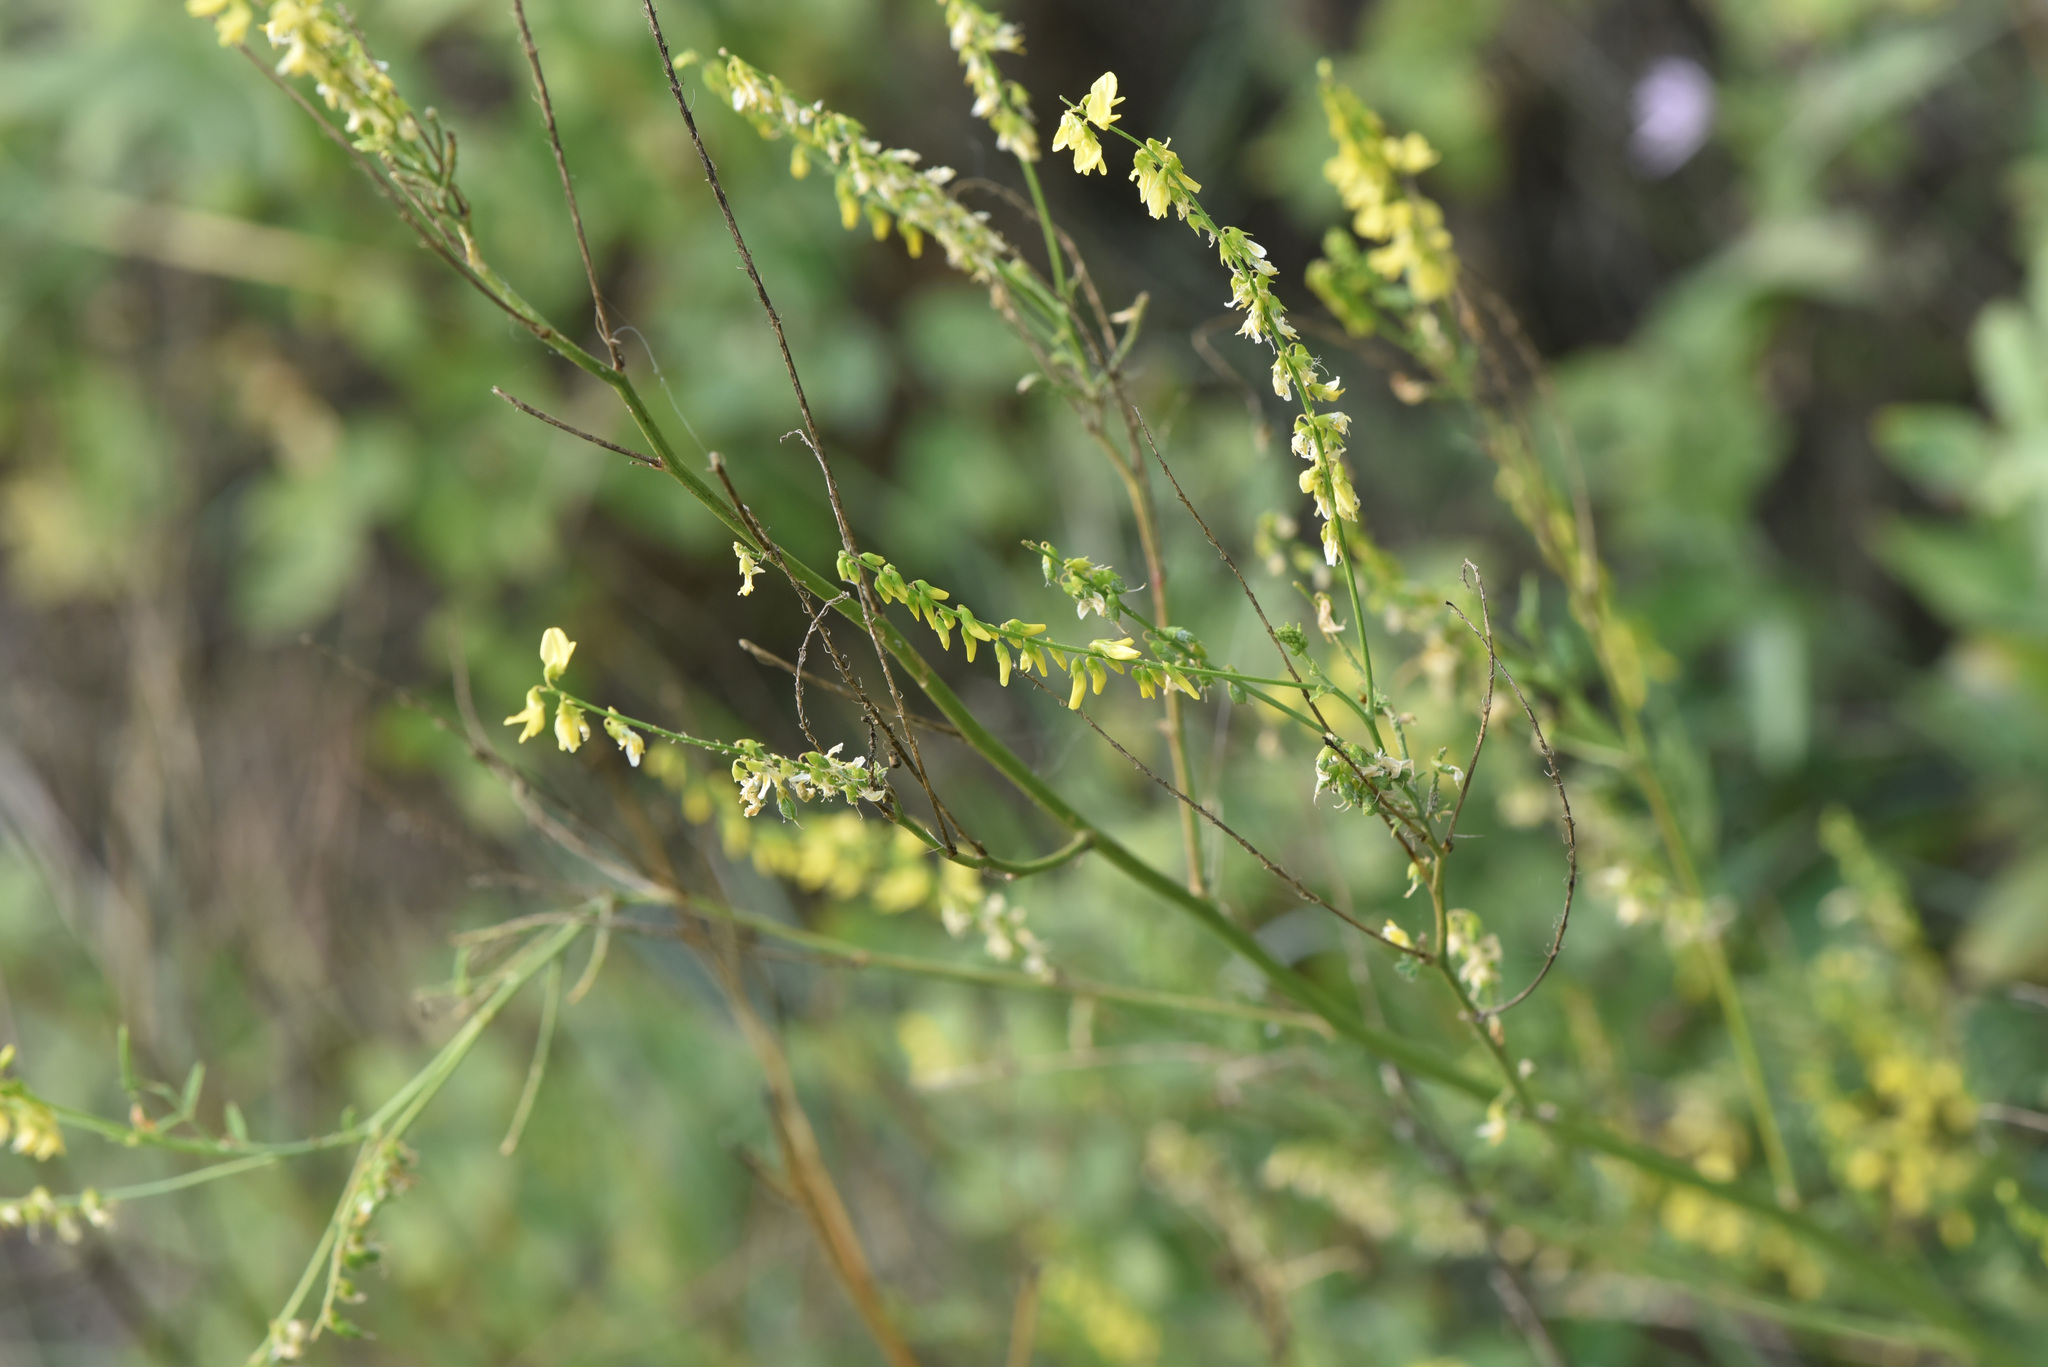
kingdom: Plantae
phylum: Tracheophyta
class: Magnoliopsida
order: Fabales
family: Fabaceae
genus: Melilotus
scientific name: Melilotus officinalis
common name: Sweetclover
